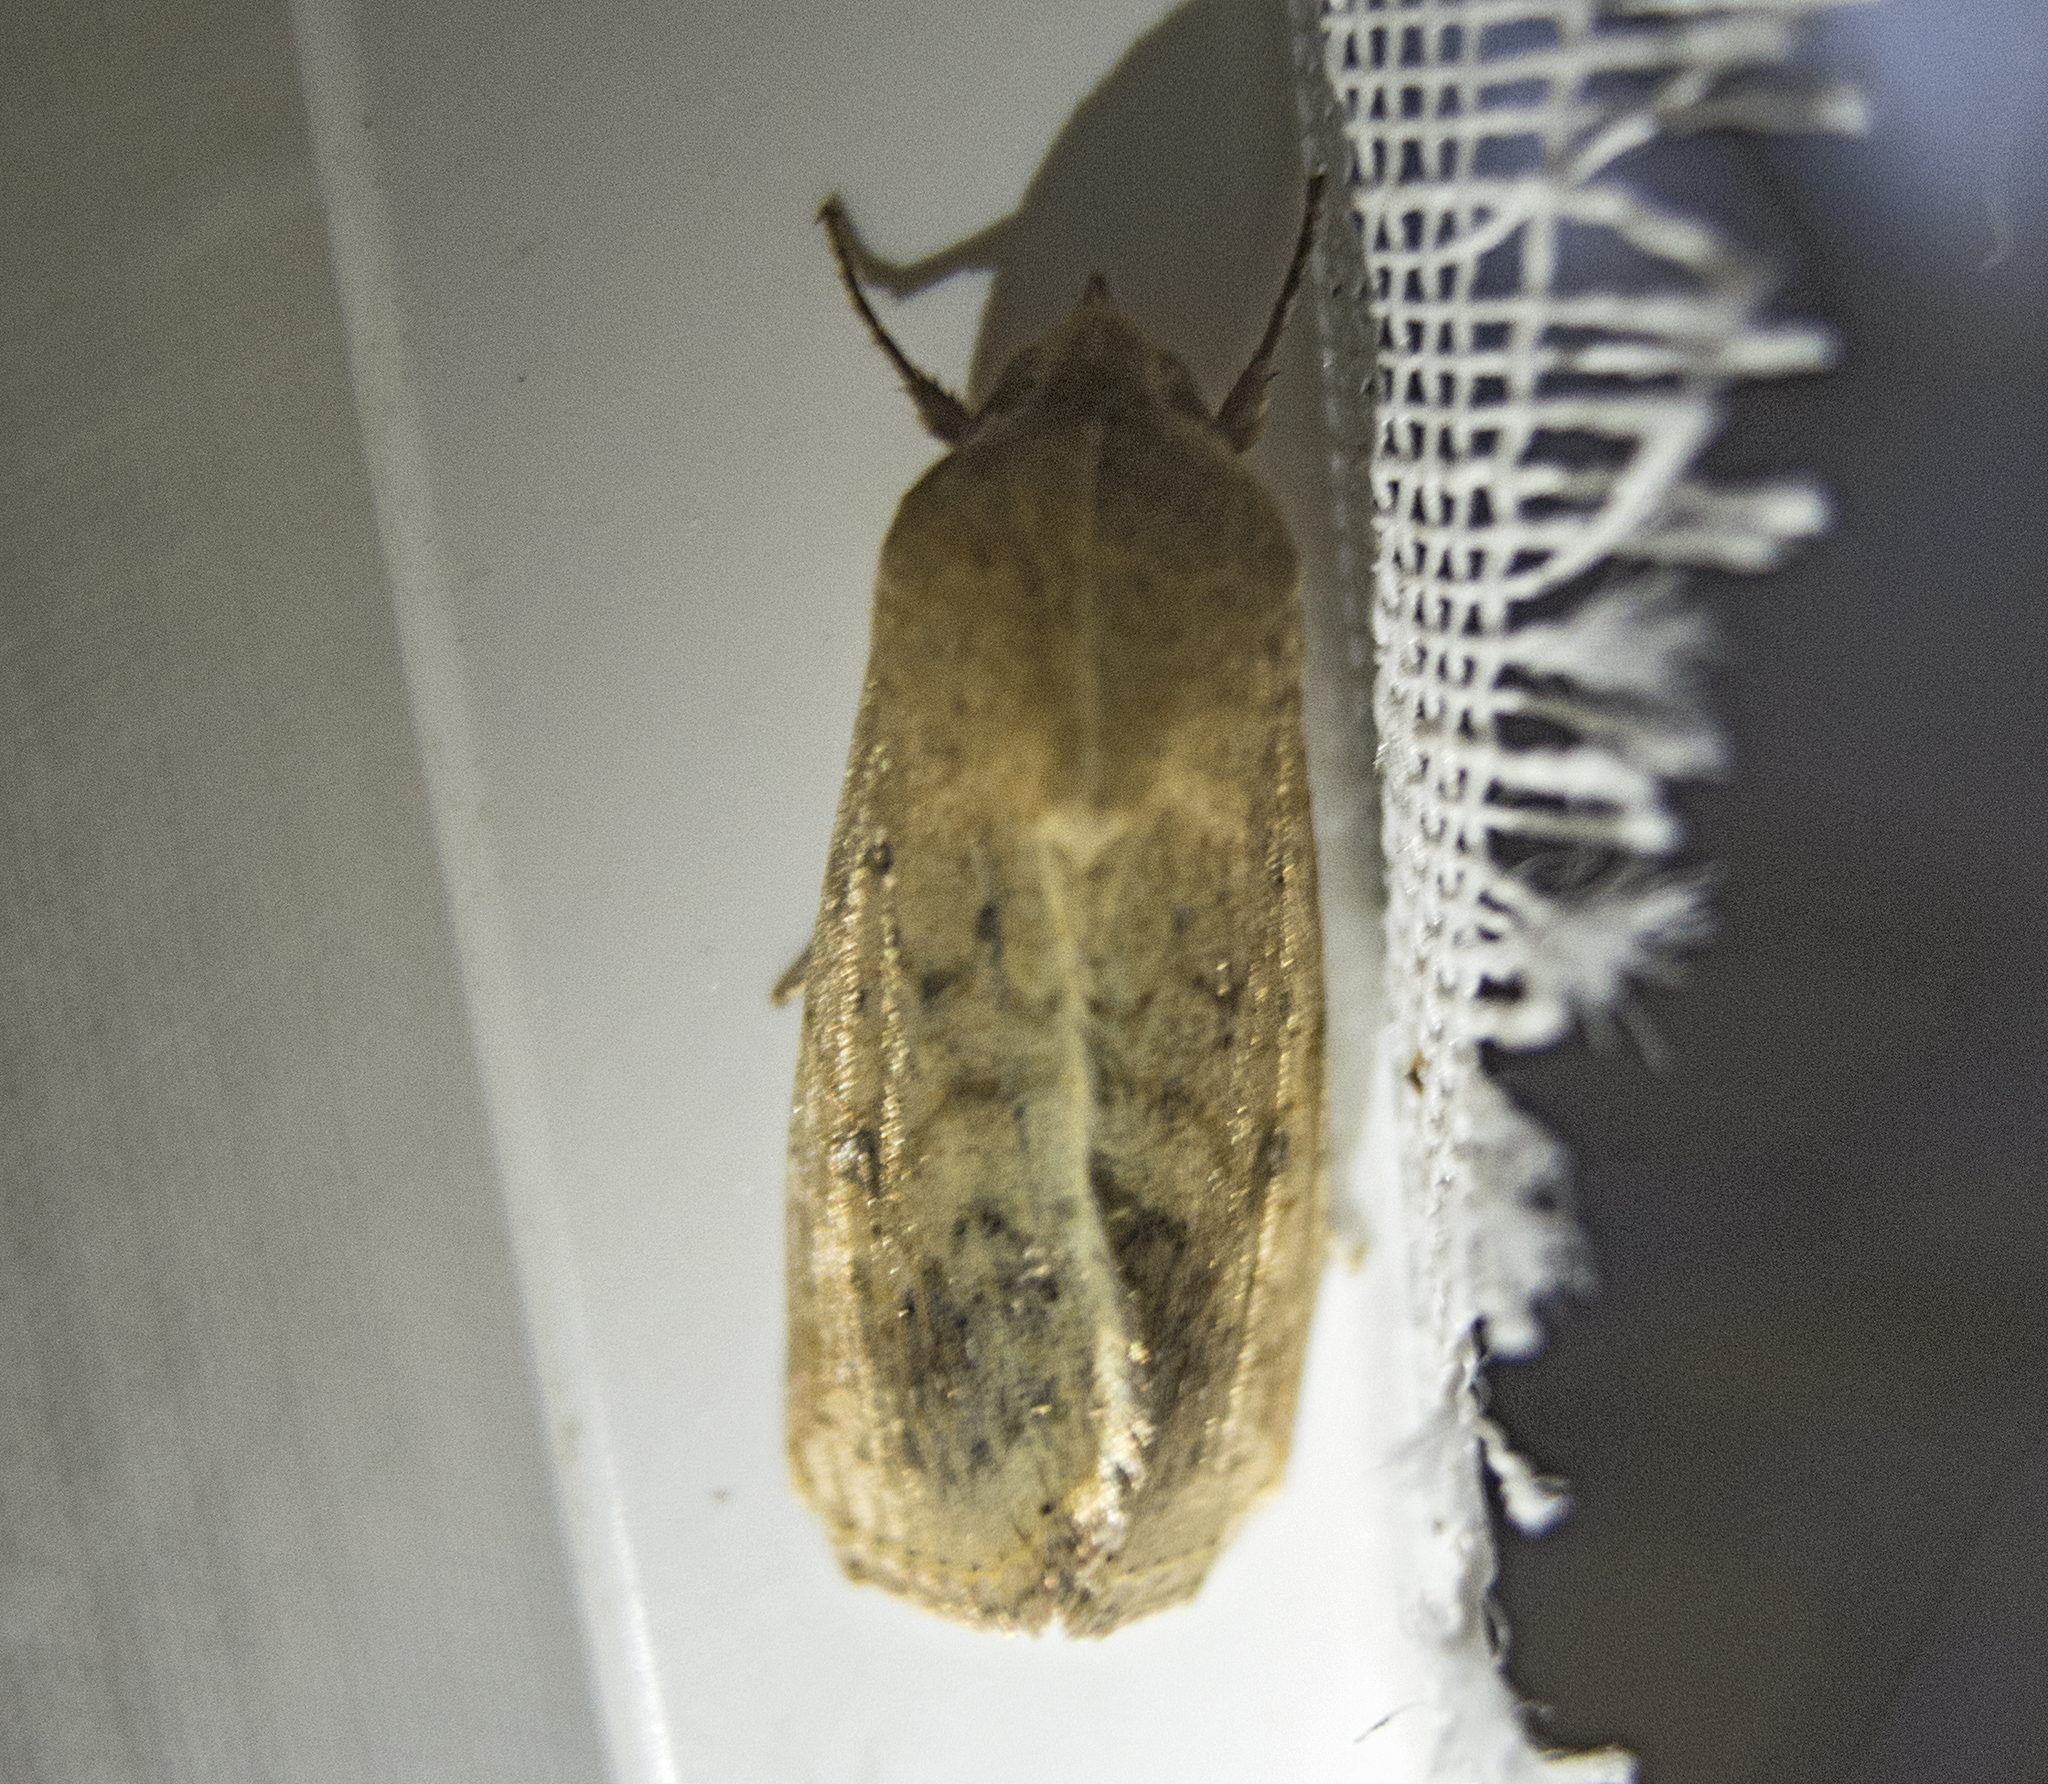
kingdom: Animalia
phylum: Arthropoda
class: Insecta
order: Lepidoptera
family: Noctuidae
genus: Helicoverpa
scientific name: Helicoverpa armigera
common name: Cotton bollworm
